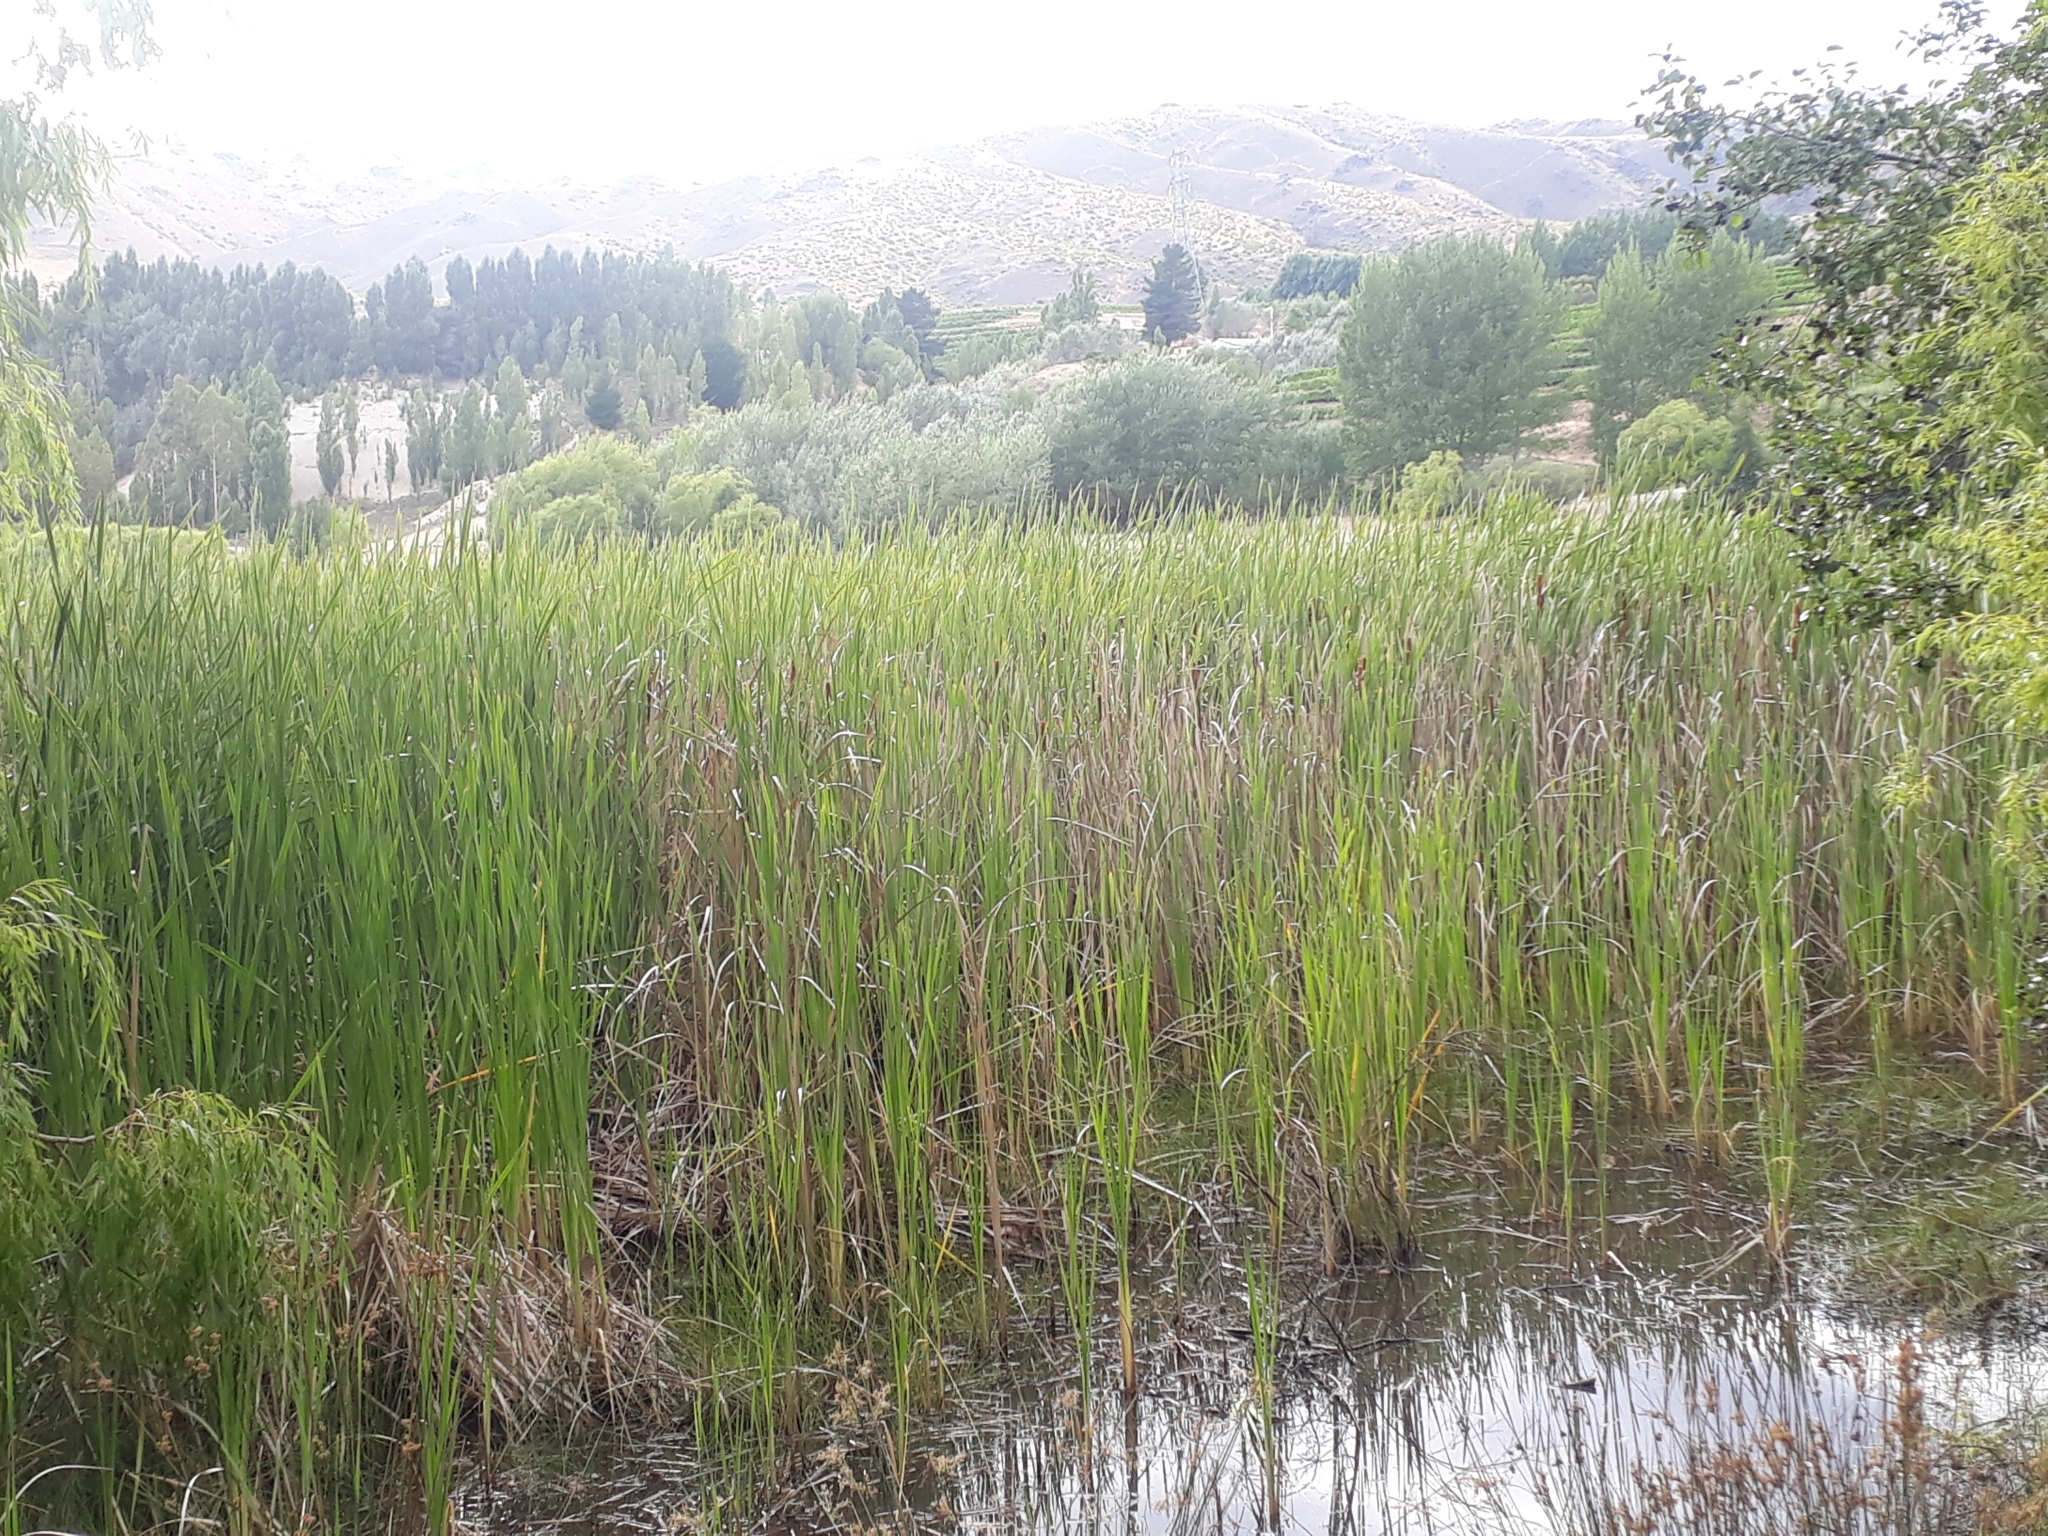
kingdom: Plantae
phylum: Tracheophyta
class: Liliopsida
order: Poales
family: Typhaceae
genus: Typha
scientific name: Typha orientalis
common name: Bullrush
